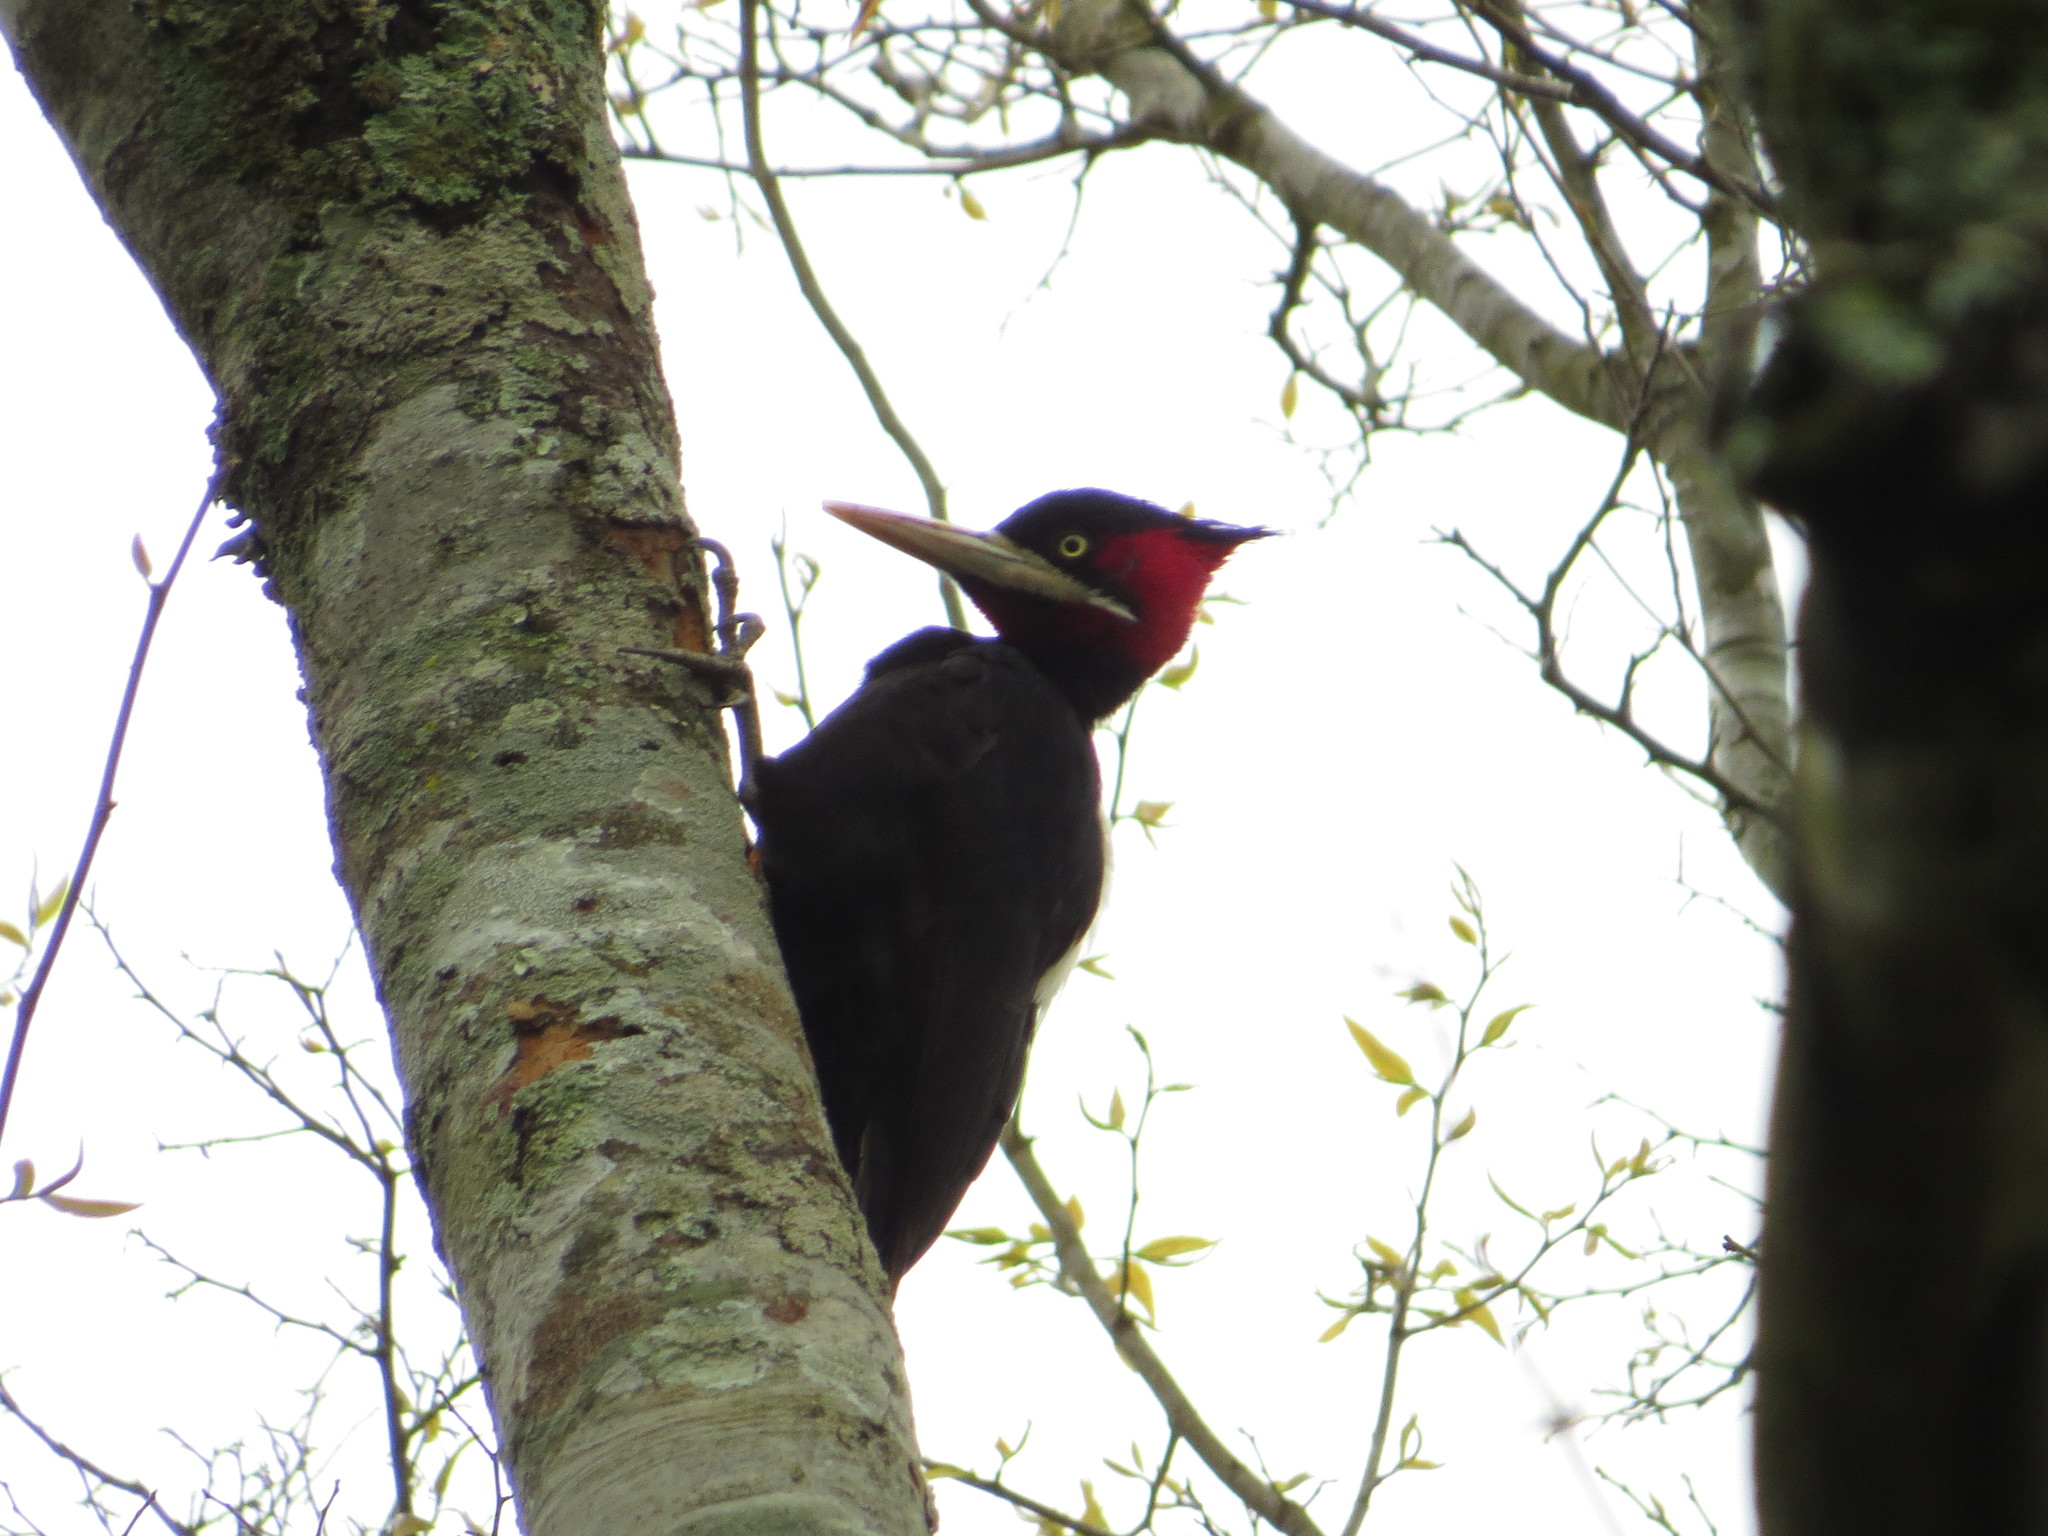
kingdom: Animalia
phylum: Chordata
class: Aves
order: Piciformes
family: Picidae
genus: Campephilus
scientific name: Campephilus leucopogon
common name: Cream-backed woodpecker
